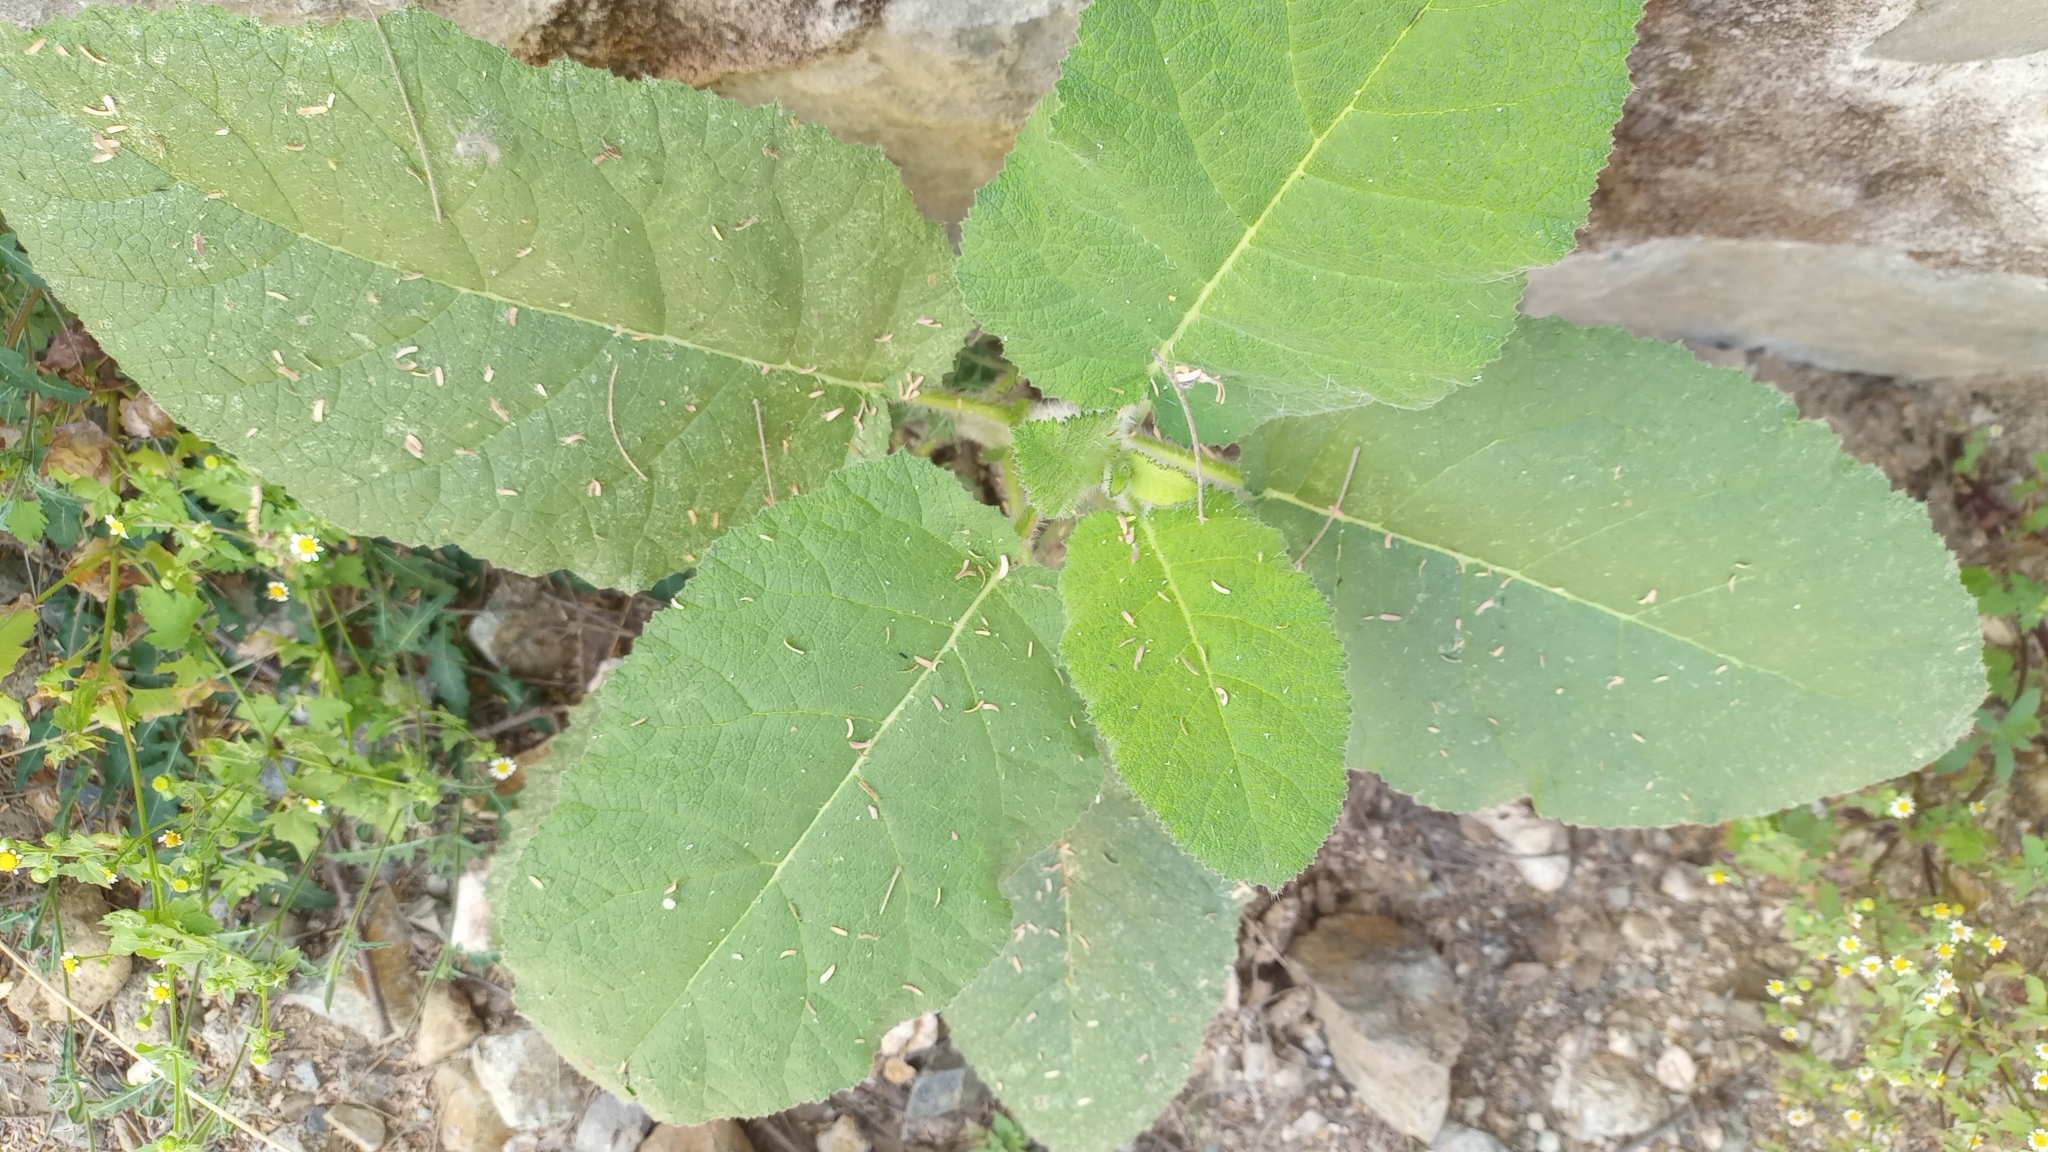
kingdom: Plantae
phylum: Tracheophyta
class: Magnoliopsida
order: Boraginales
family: Namaceae
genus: Wigandia
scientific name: Wigandia urens
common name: Caracus wigandia
